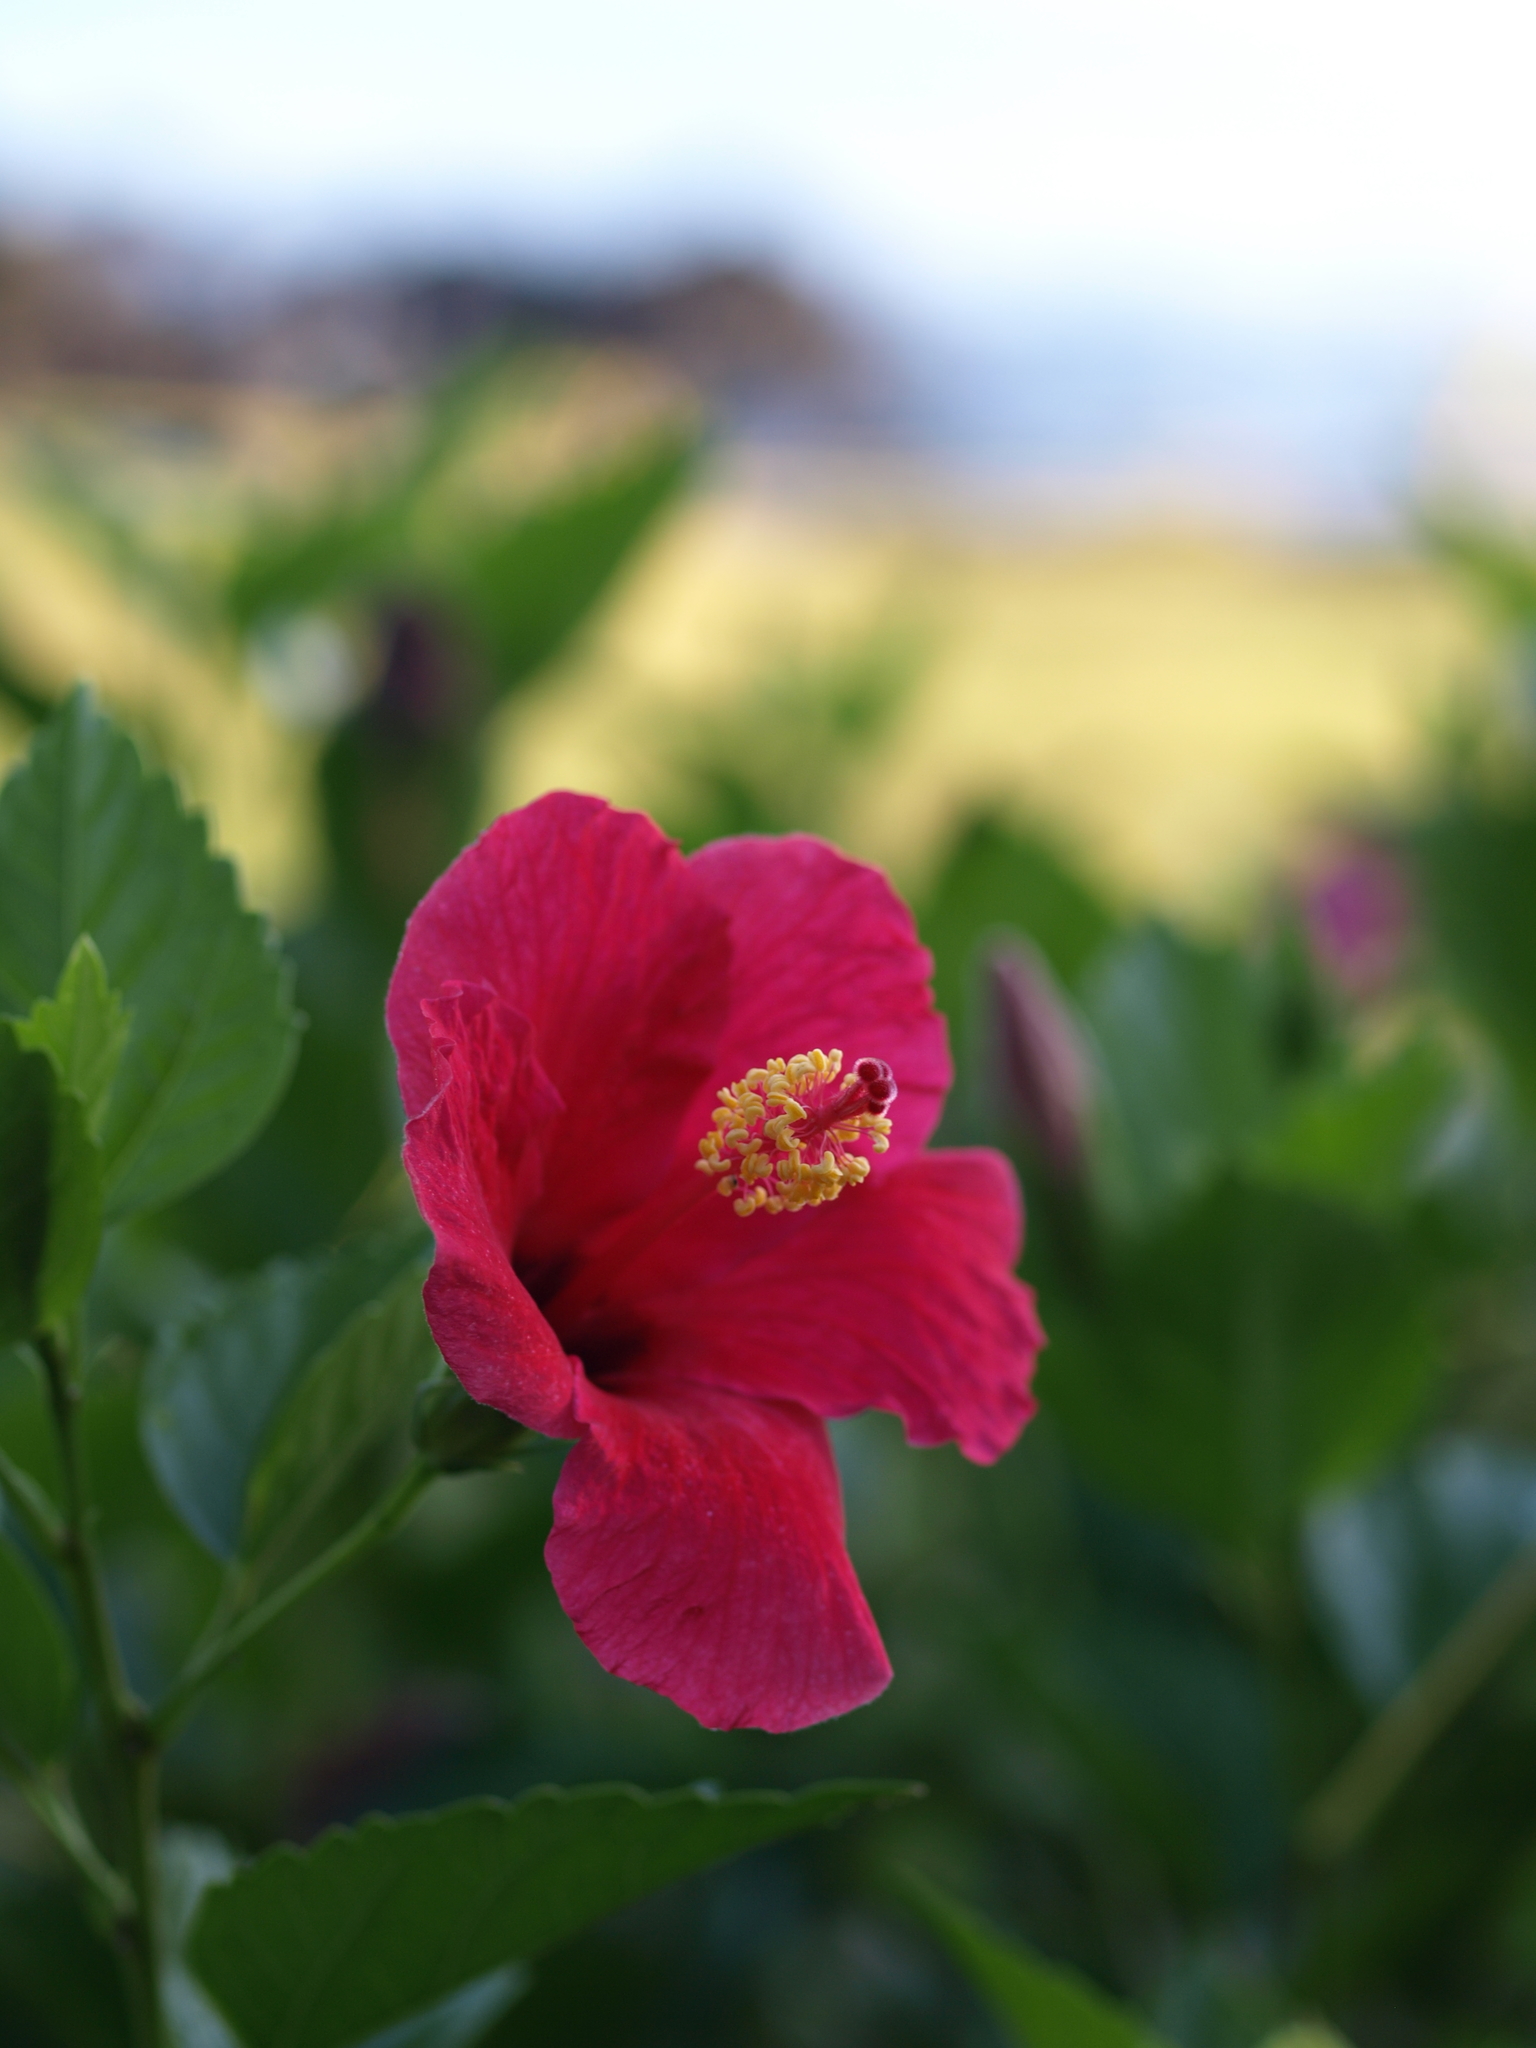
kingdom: Plantae
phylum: Tracheophyta
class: Magnoliopsida
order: Malvales
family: Malvaceae
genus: Hibiscus
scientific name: Hibiscus rosa-sinensis
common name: Hibiscus
